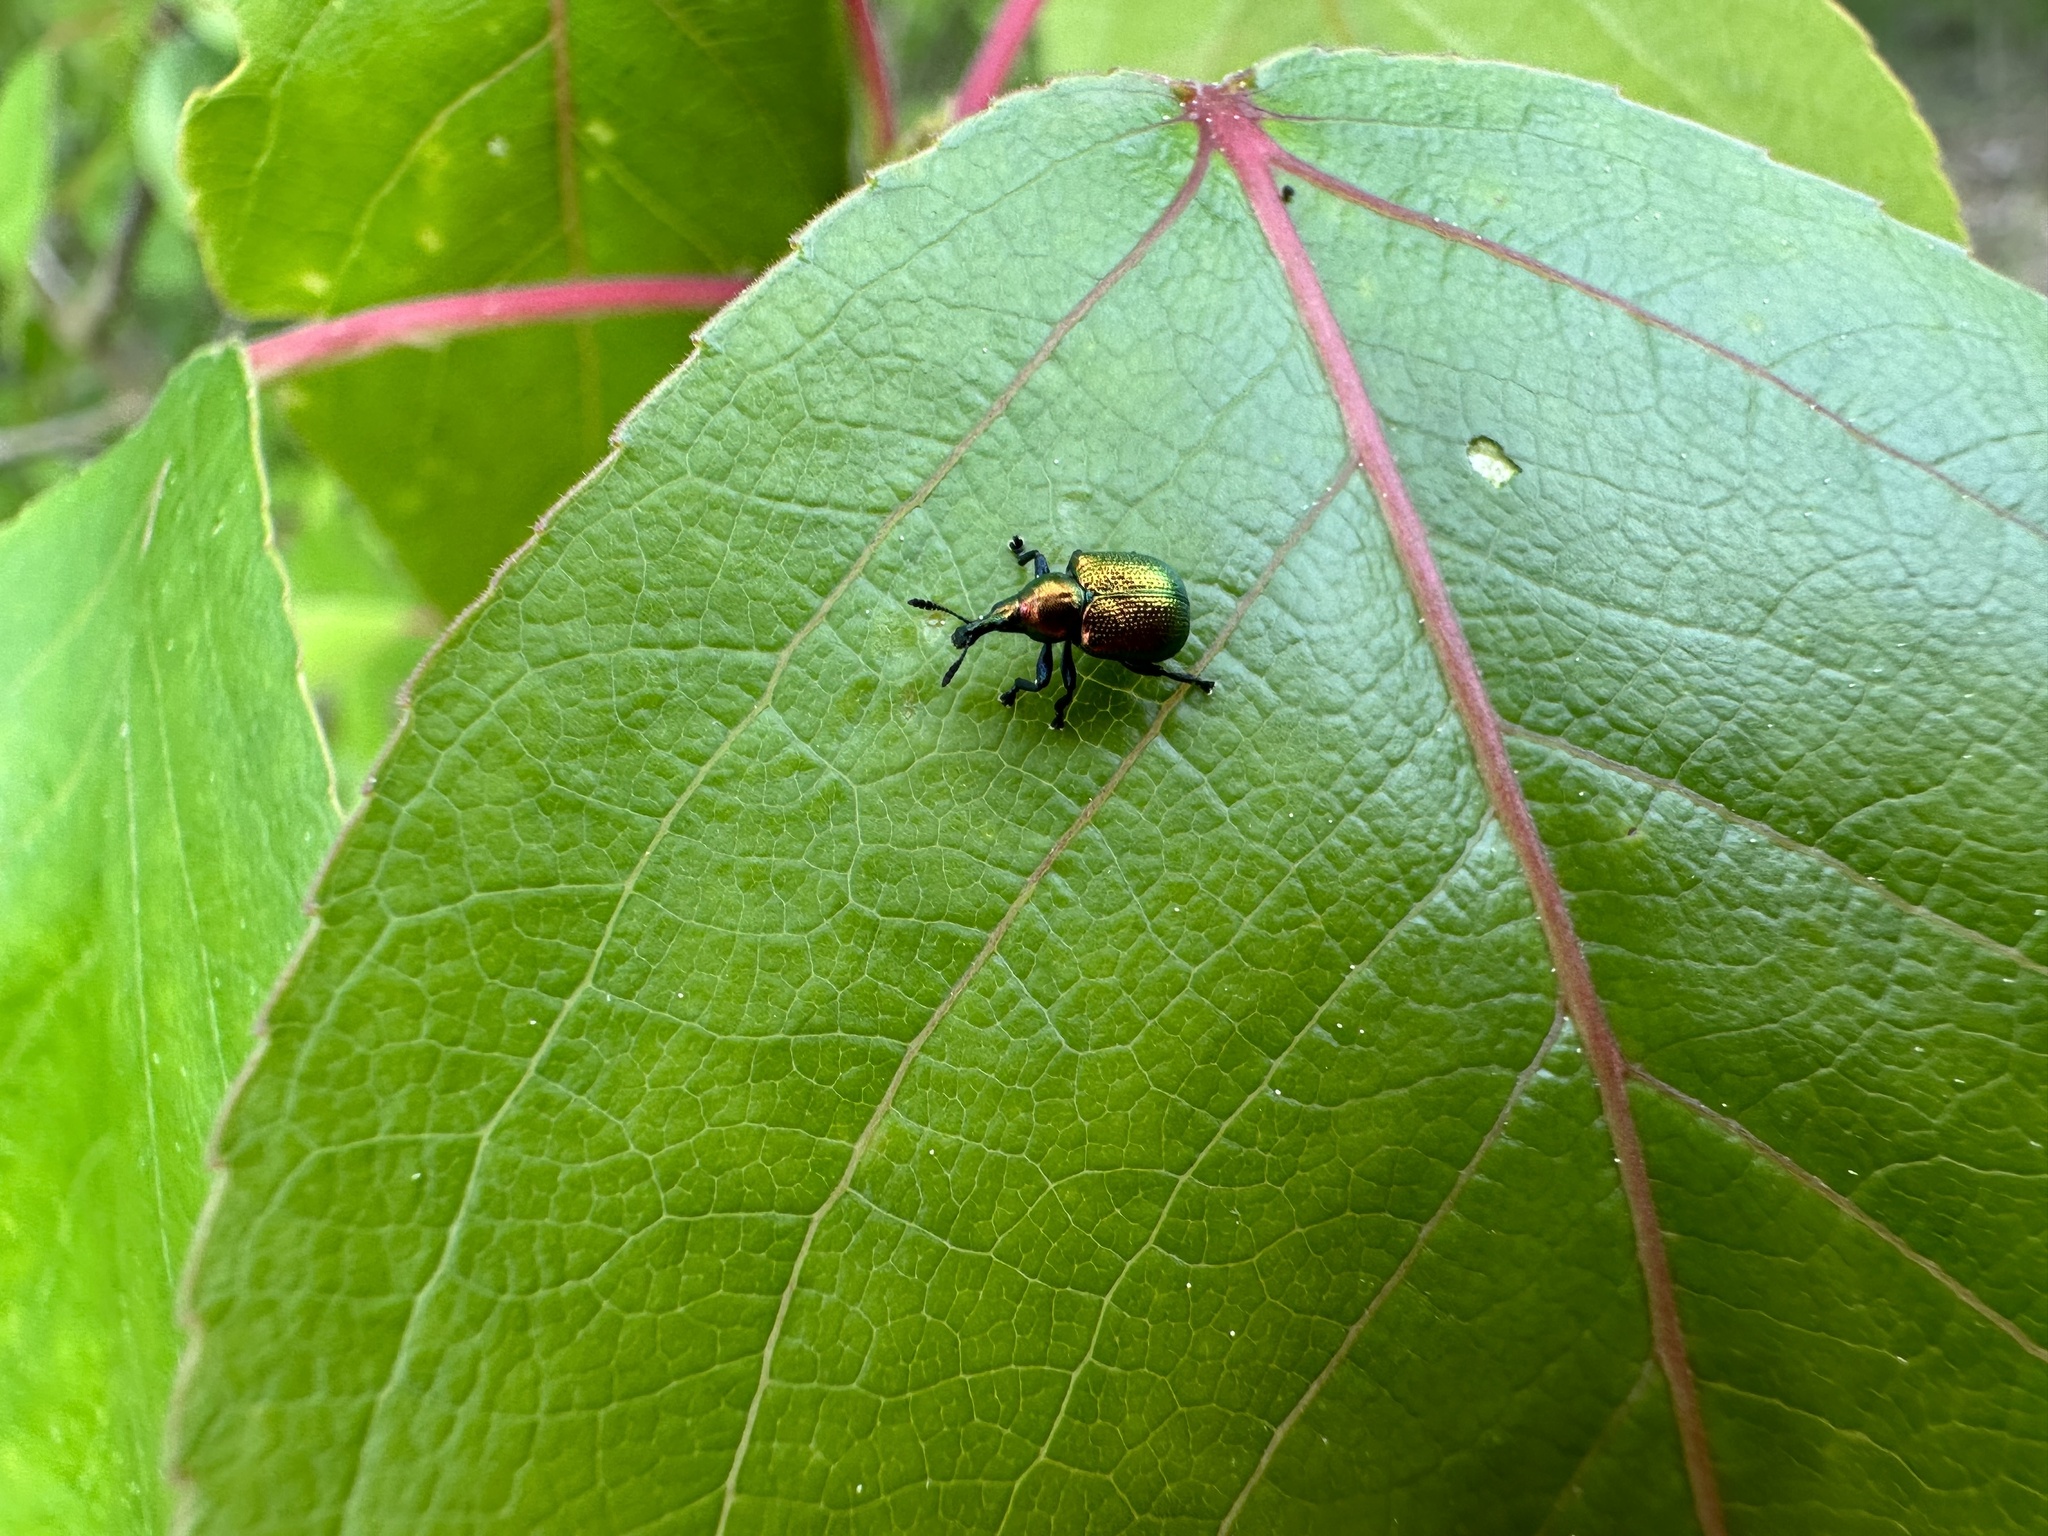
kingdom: Animalia
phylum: Arthropoda
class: Insecta
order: Coleoptera
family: Attelabidae
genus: Byctiscus
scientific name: Byctiscus populi
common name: Leaf-rolling weevil
